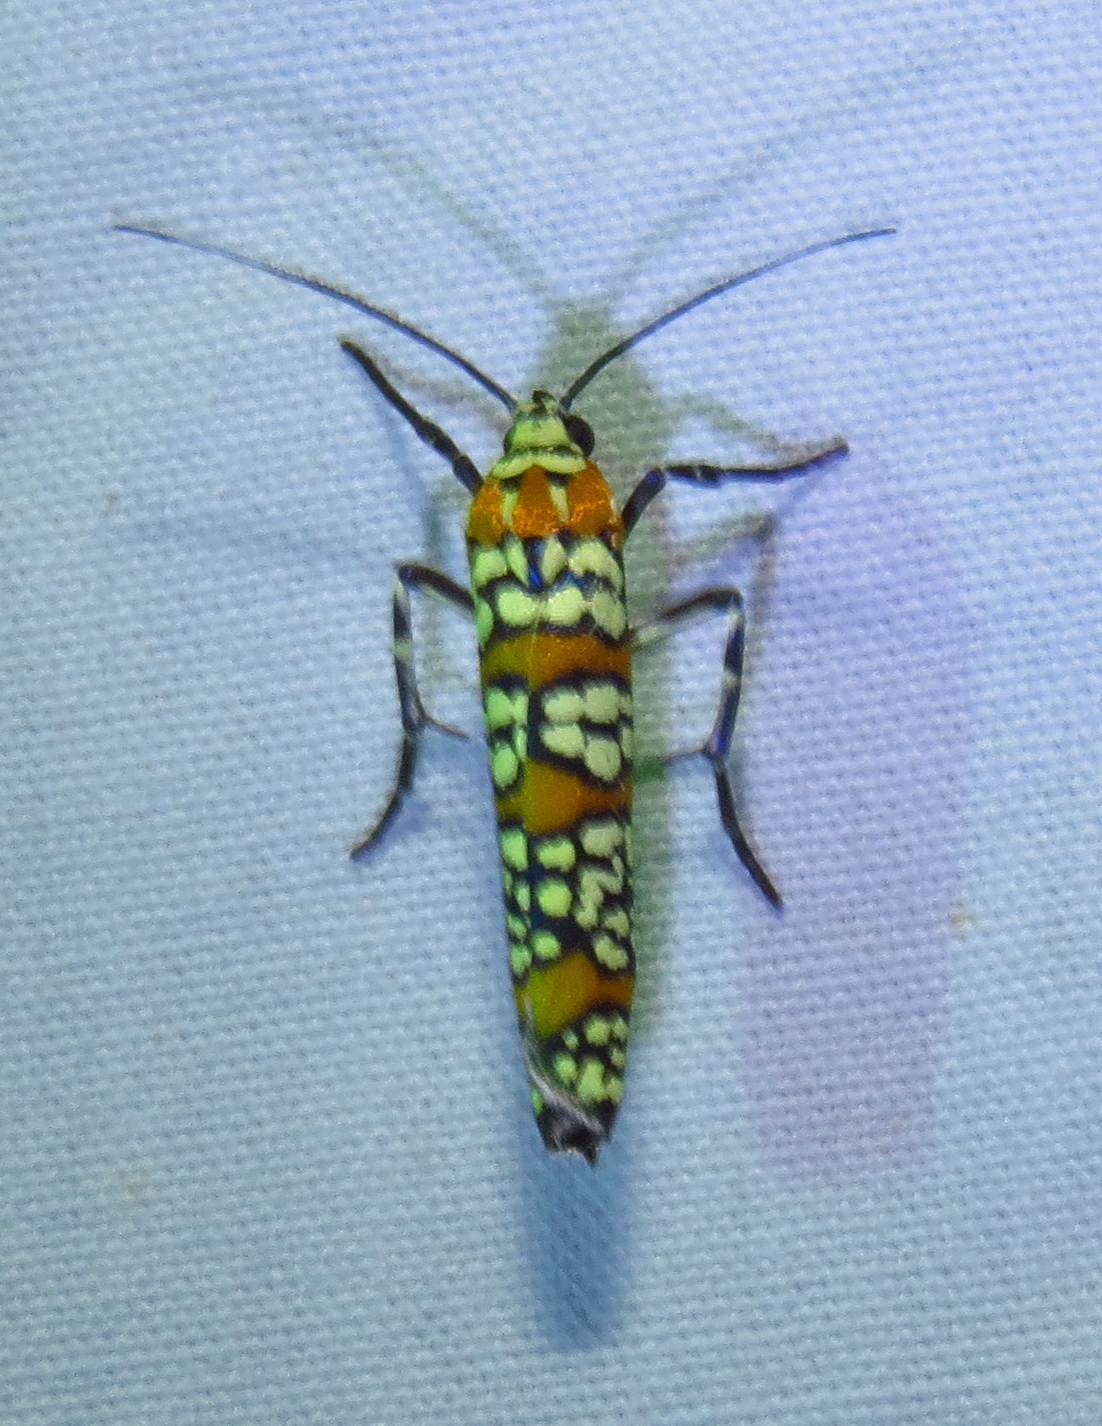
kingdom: Animalia
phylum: Arthropoda
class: Insecta
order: Lepidoptera
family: Attevidae
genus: Atteva
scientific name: Atteva punctella
